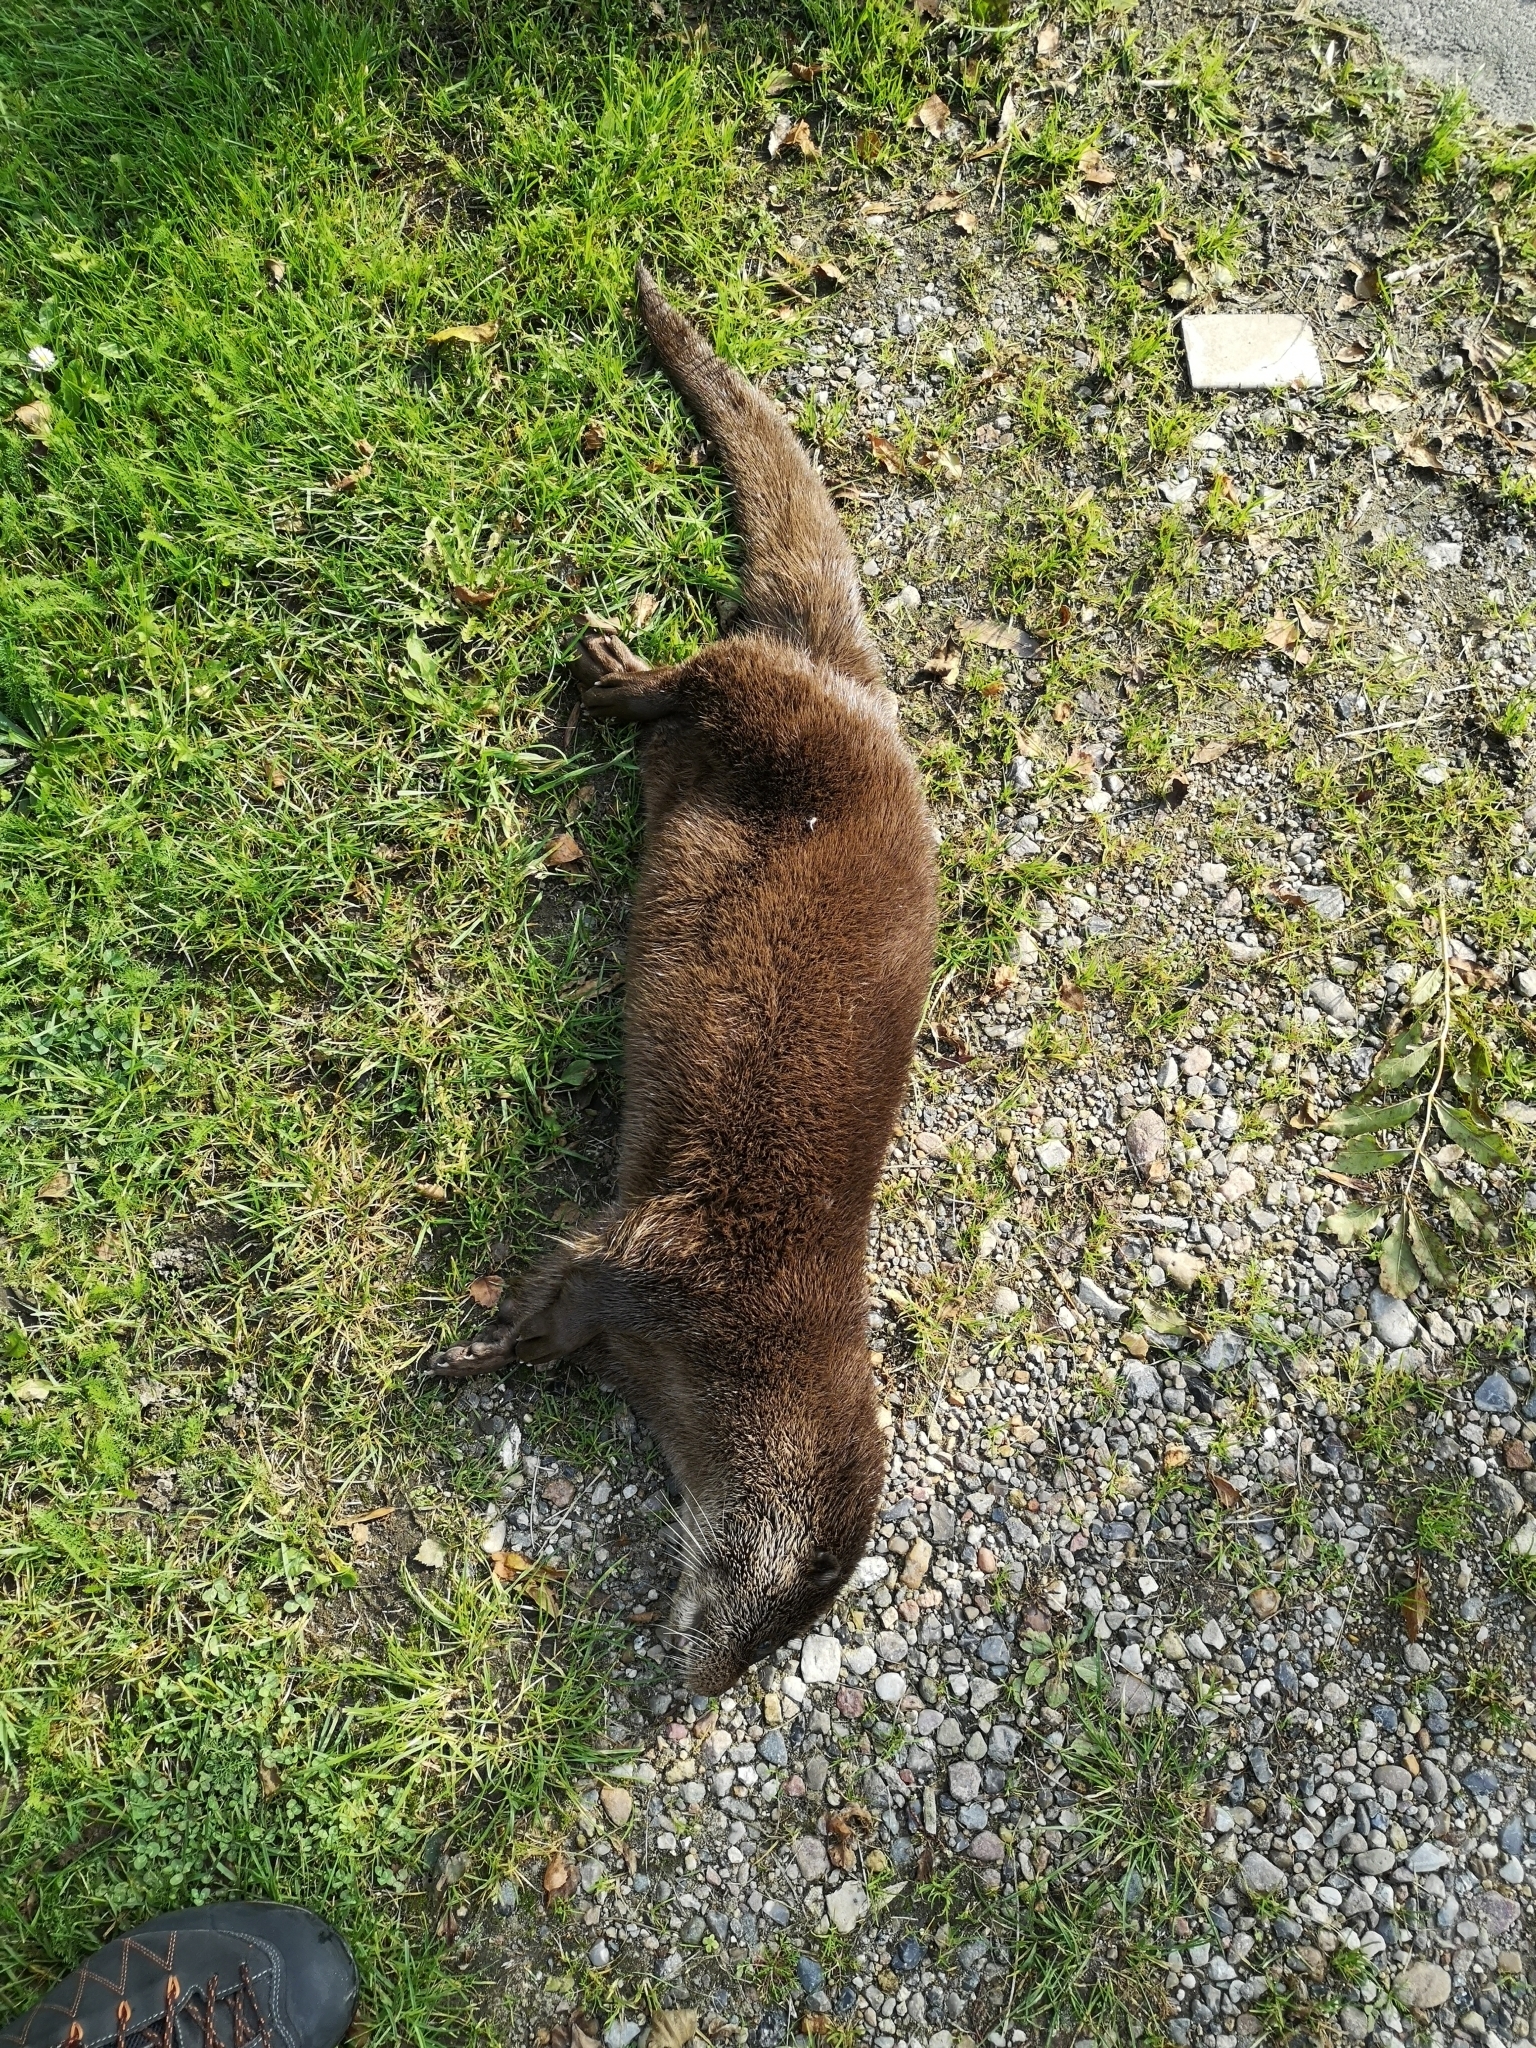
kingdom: Animalia
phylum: Chordata
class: Mammalia
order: Carnivora
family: Mustelidae
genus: Lutra
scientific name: Lutra lutra
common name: European otter
